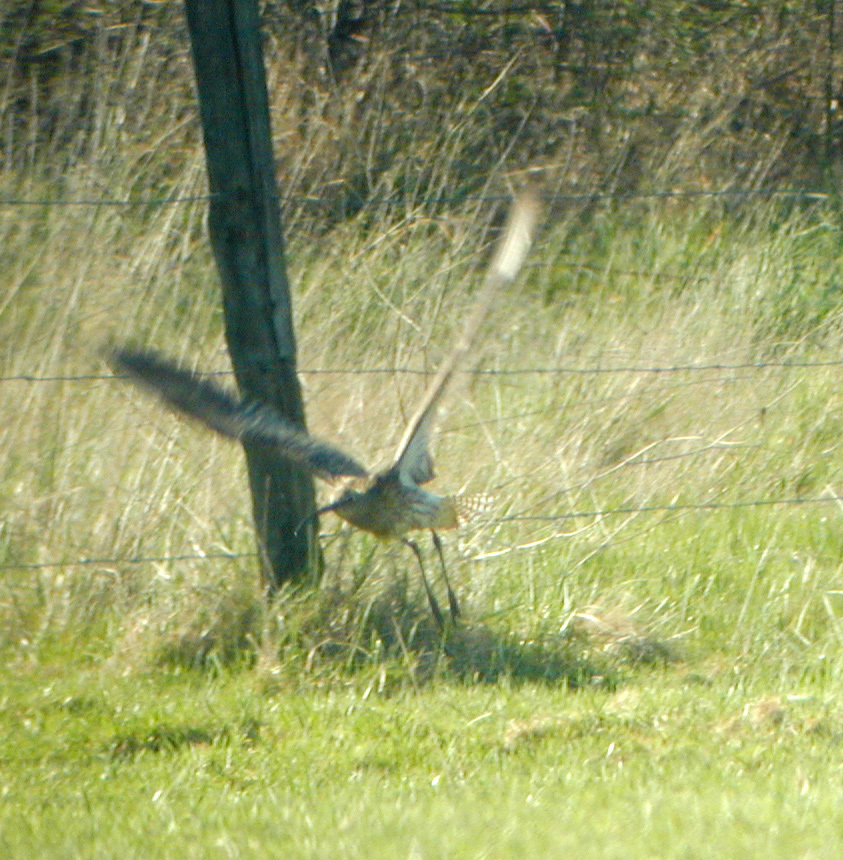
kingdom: Animalia
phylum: Chordata
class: Aves
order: Charadriiformes
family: Scolopacidae
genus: Numenius
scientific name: Numenius arquata
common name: Eurasian curlew
